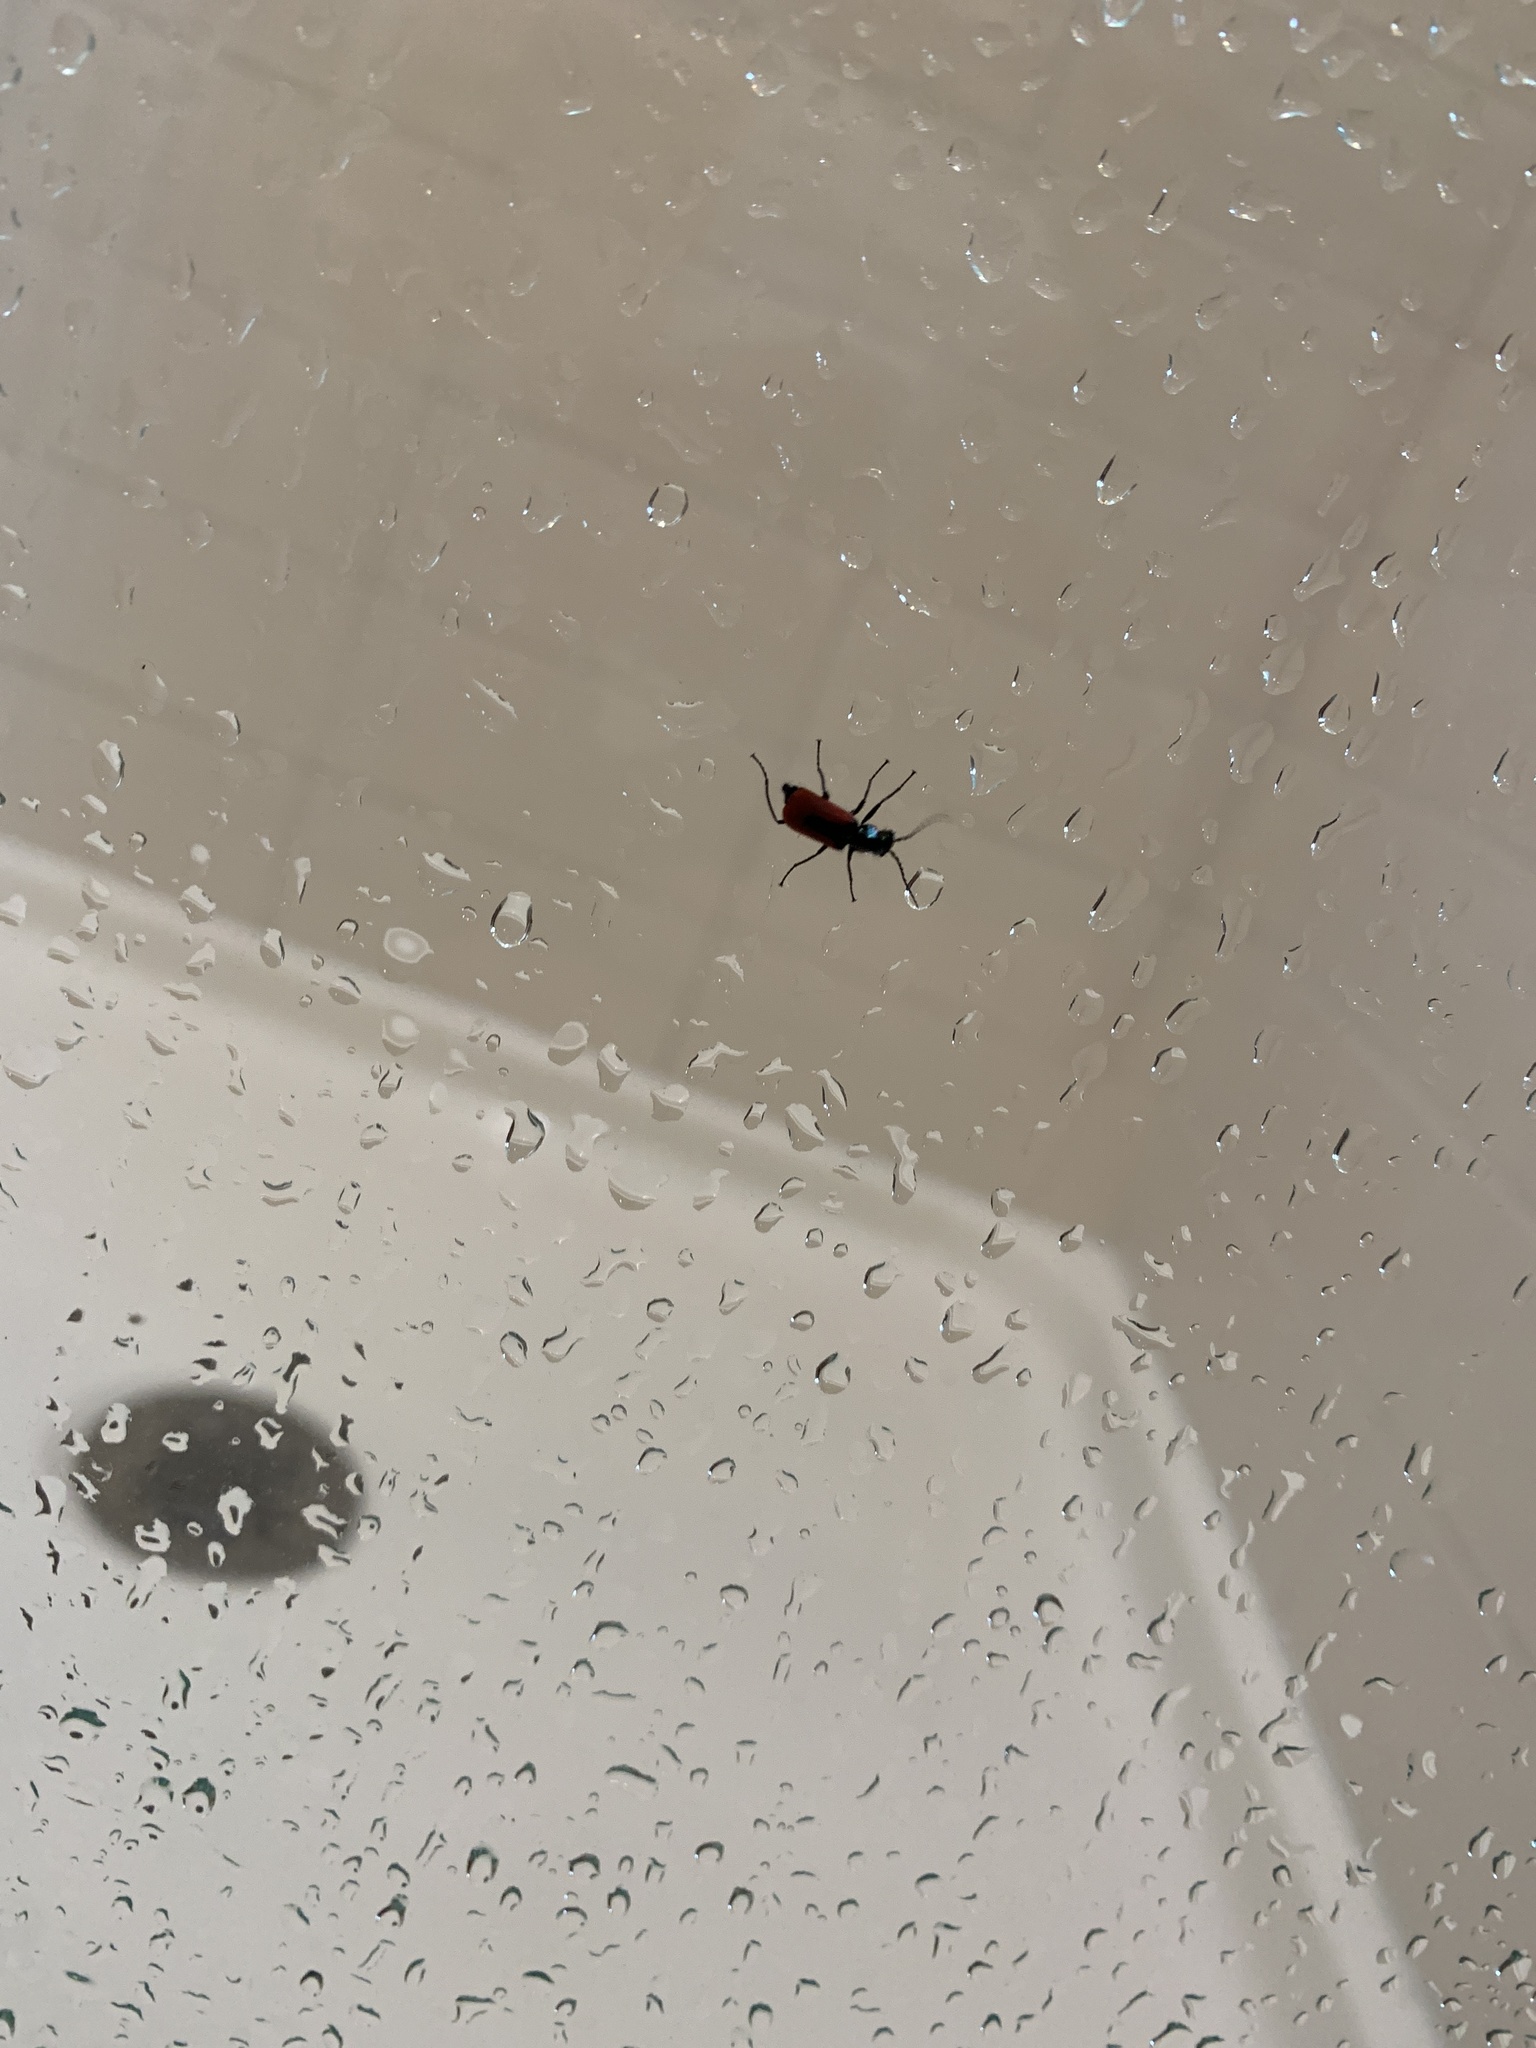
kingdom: Animalia
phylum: Arthropoda
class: Insecta
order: Coleoptera
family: Melyridae
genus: Malachius
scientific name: Malachius aeneus
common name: Scarlet malachite beetle
